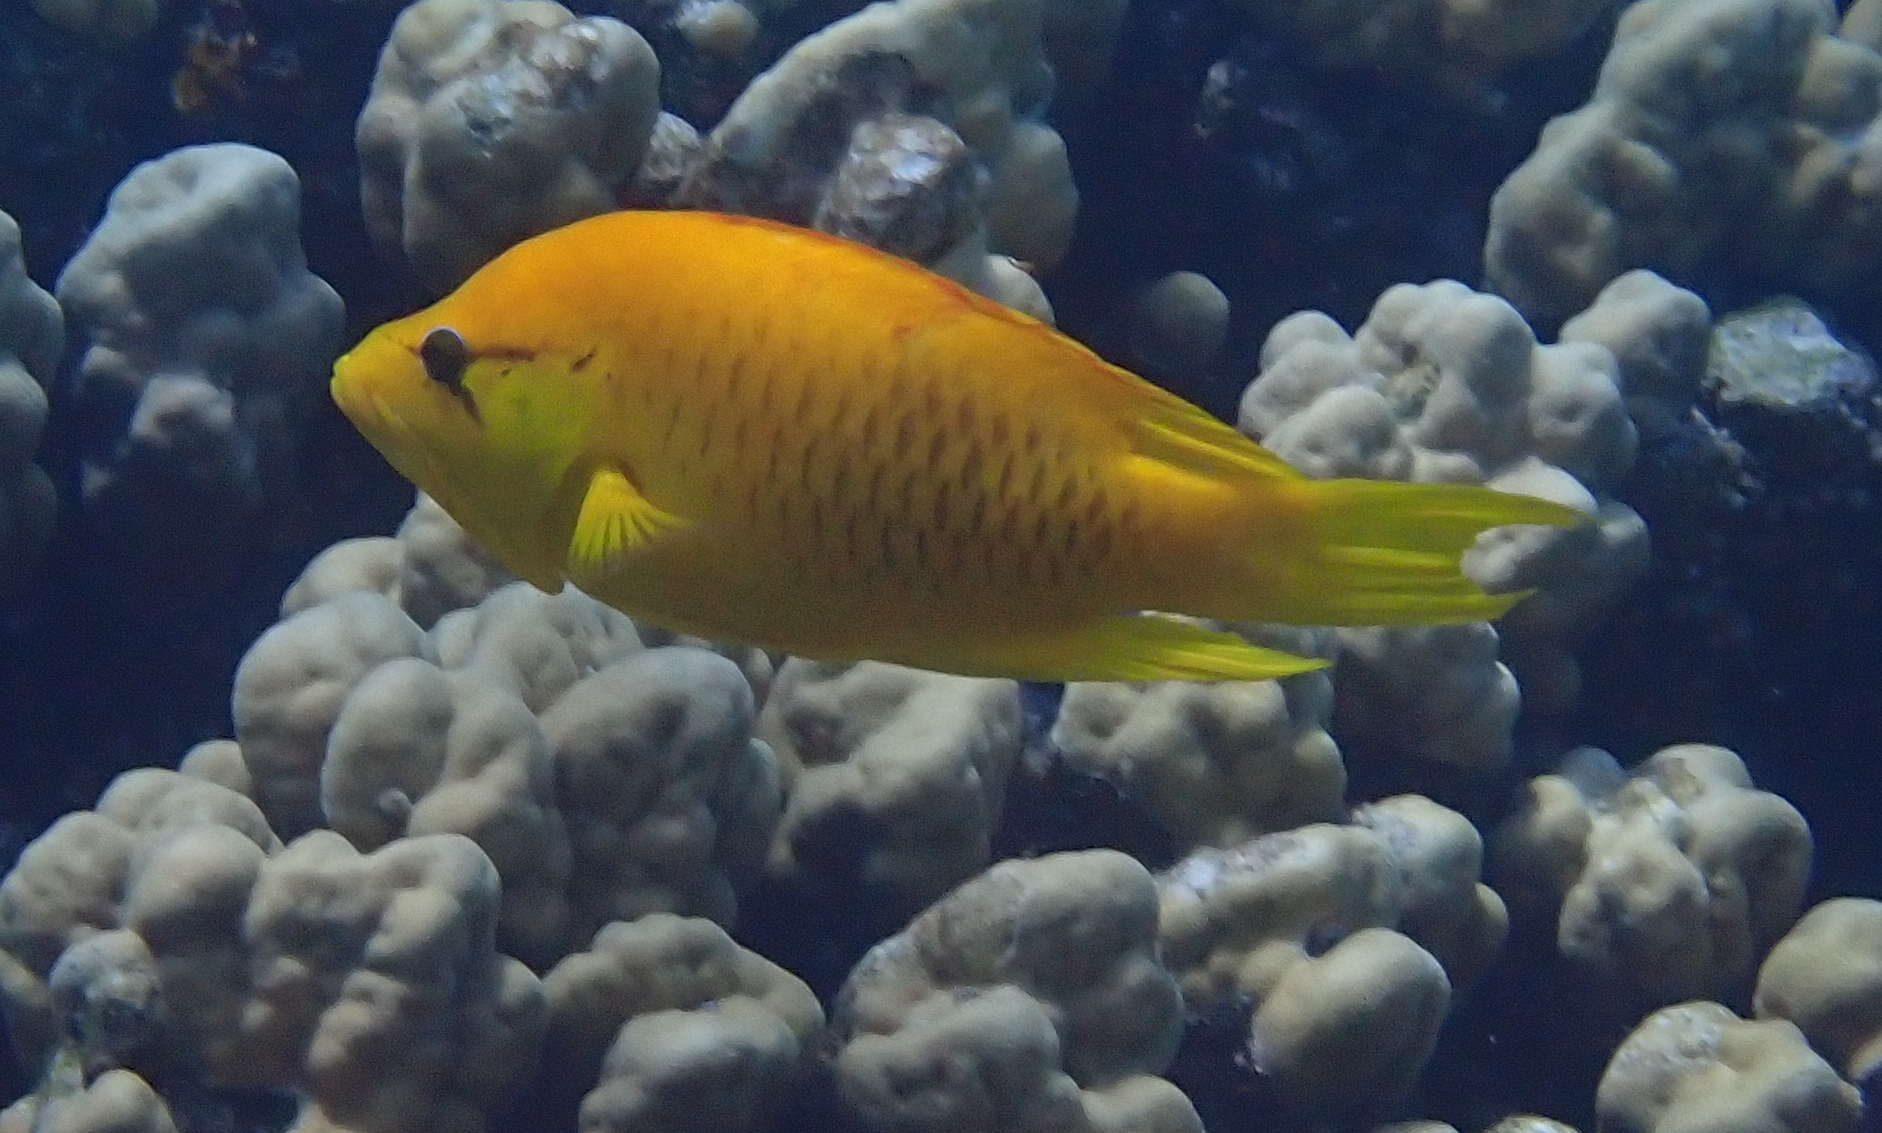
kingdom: Animalia
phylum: Chordata
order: Perciformes
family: Labridae
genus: Epibulus
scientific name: Epibulus insidiator
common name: Slingjaw wrasse
